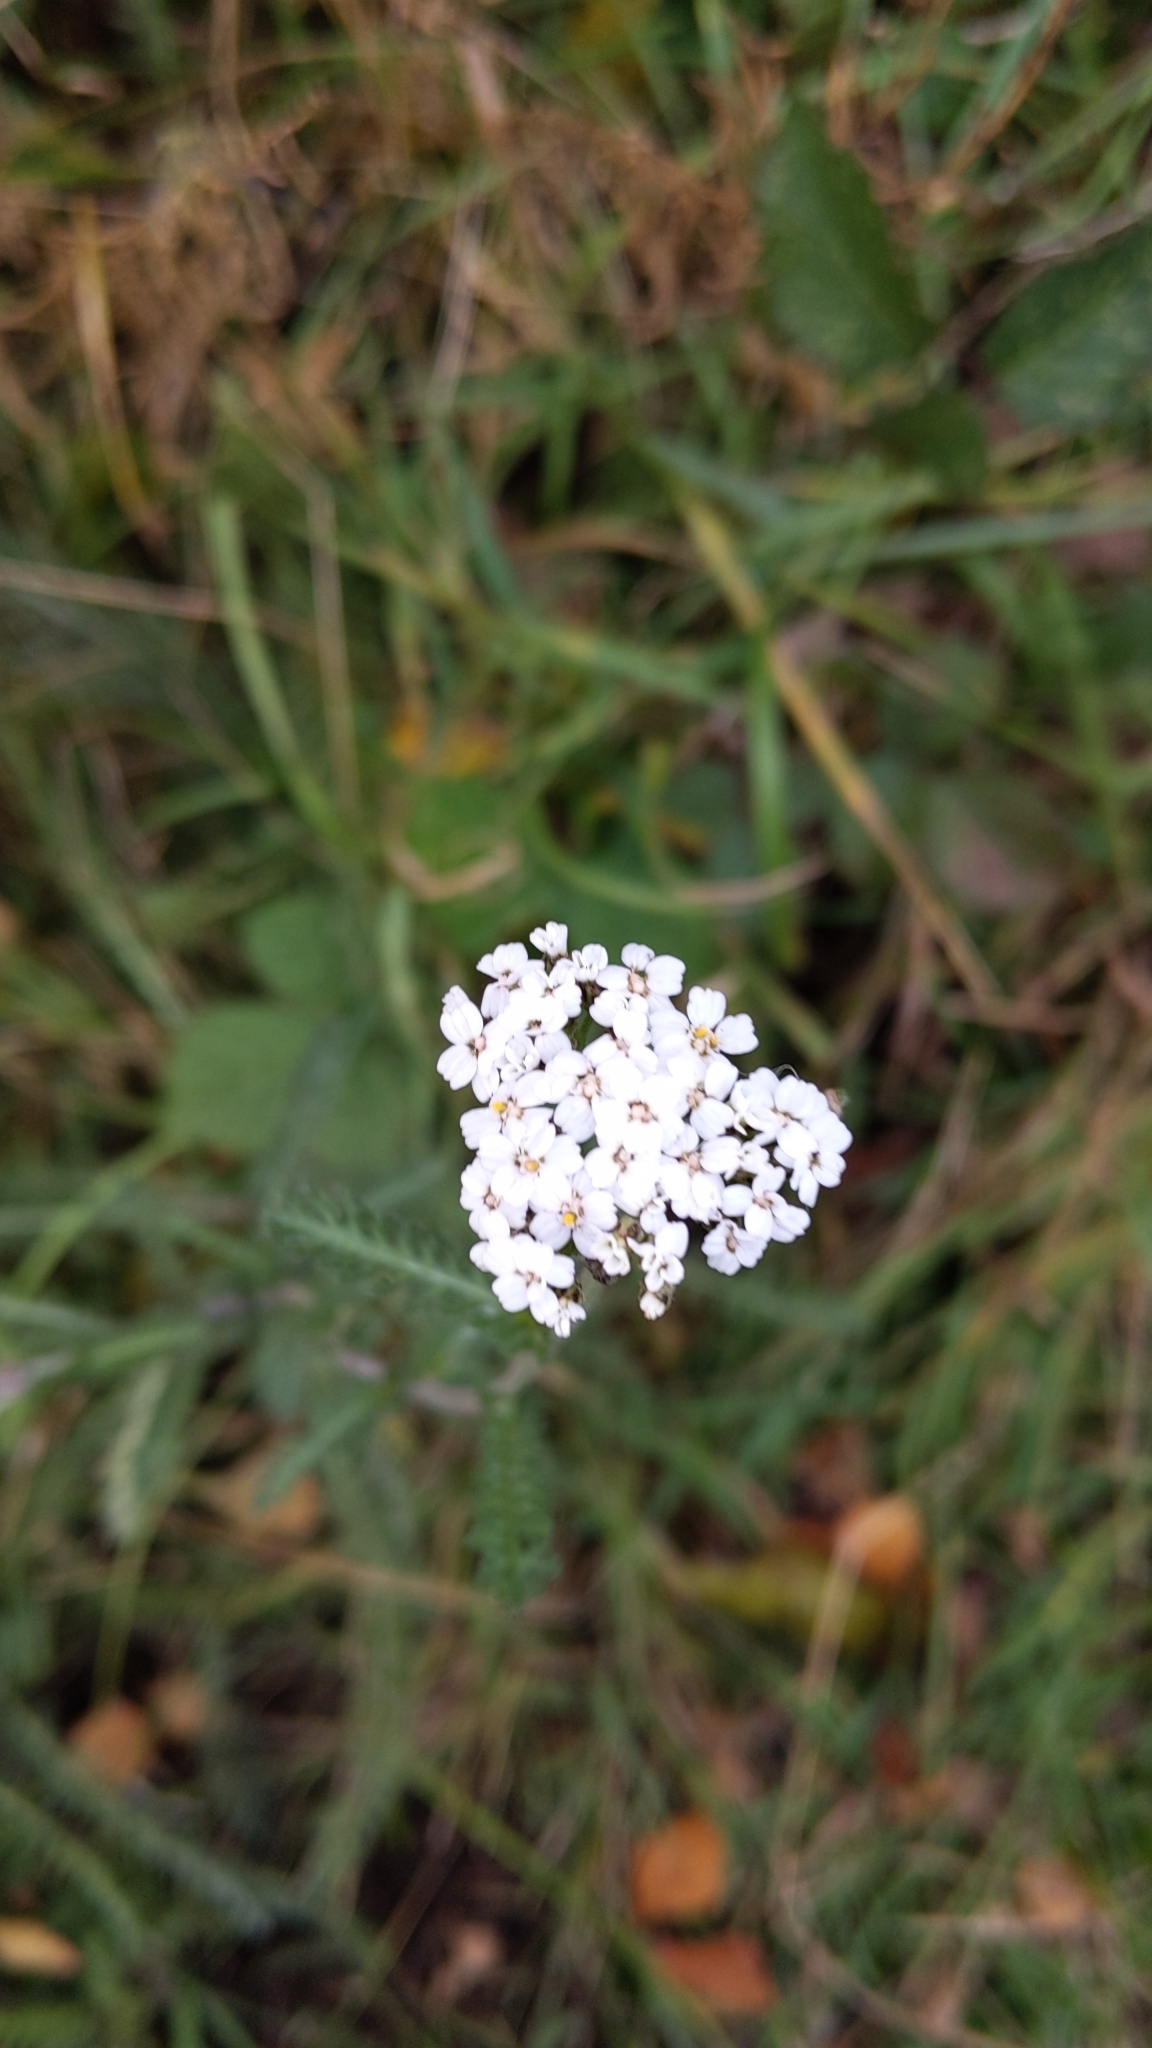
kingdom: Plantae
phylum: Tracheophyta
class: Magnoliopsida
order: Asterales
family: Asteraceae
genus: Achillea
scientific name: Achillea millefolium
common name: Yarrow
